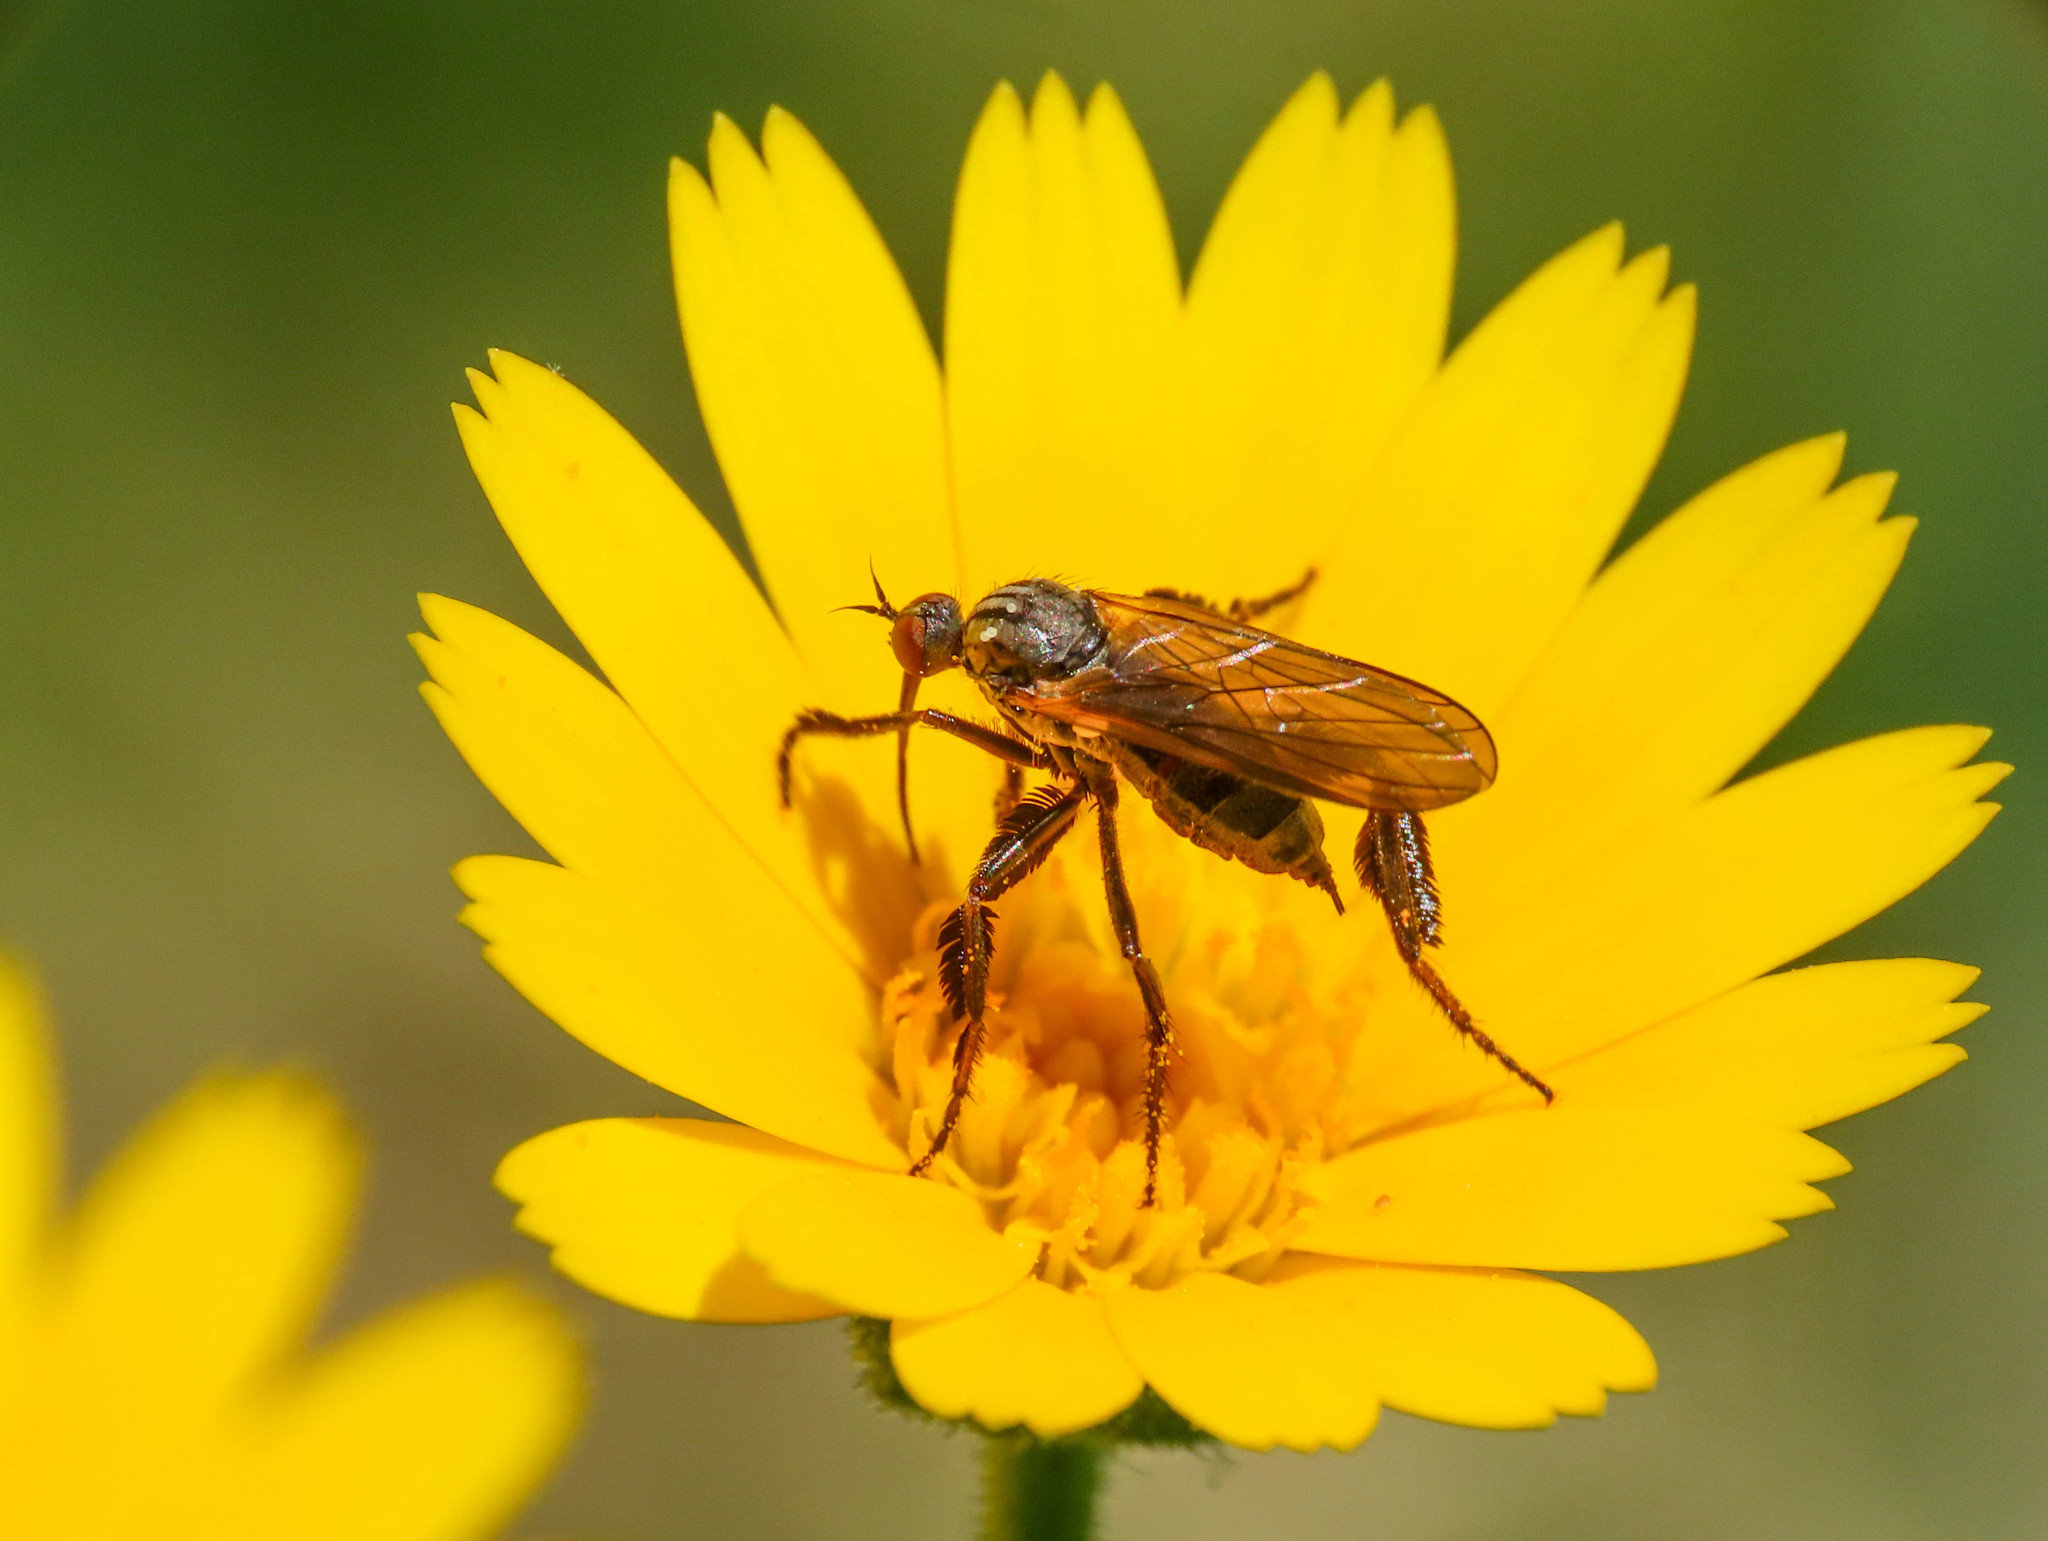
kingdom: Animalia
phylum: Arthropoda
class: Insecta
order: Diptera
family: Empididae
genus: Empis
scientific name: Empis pennipes
